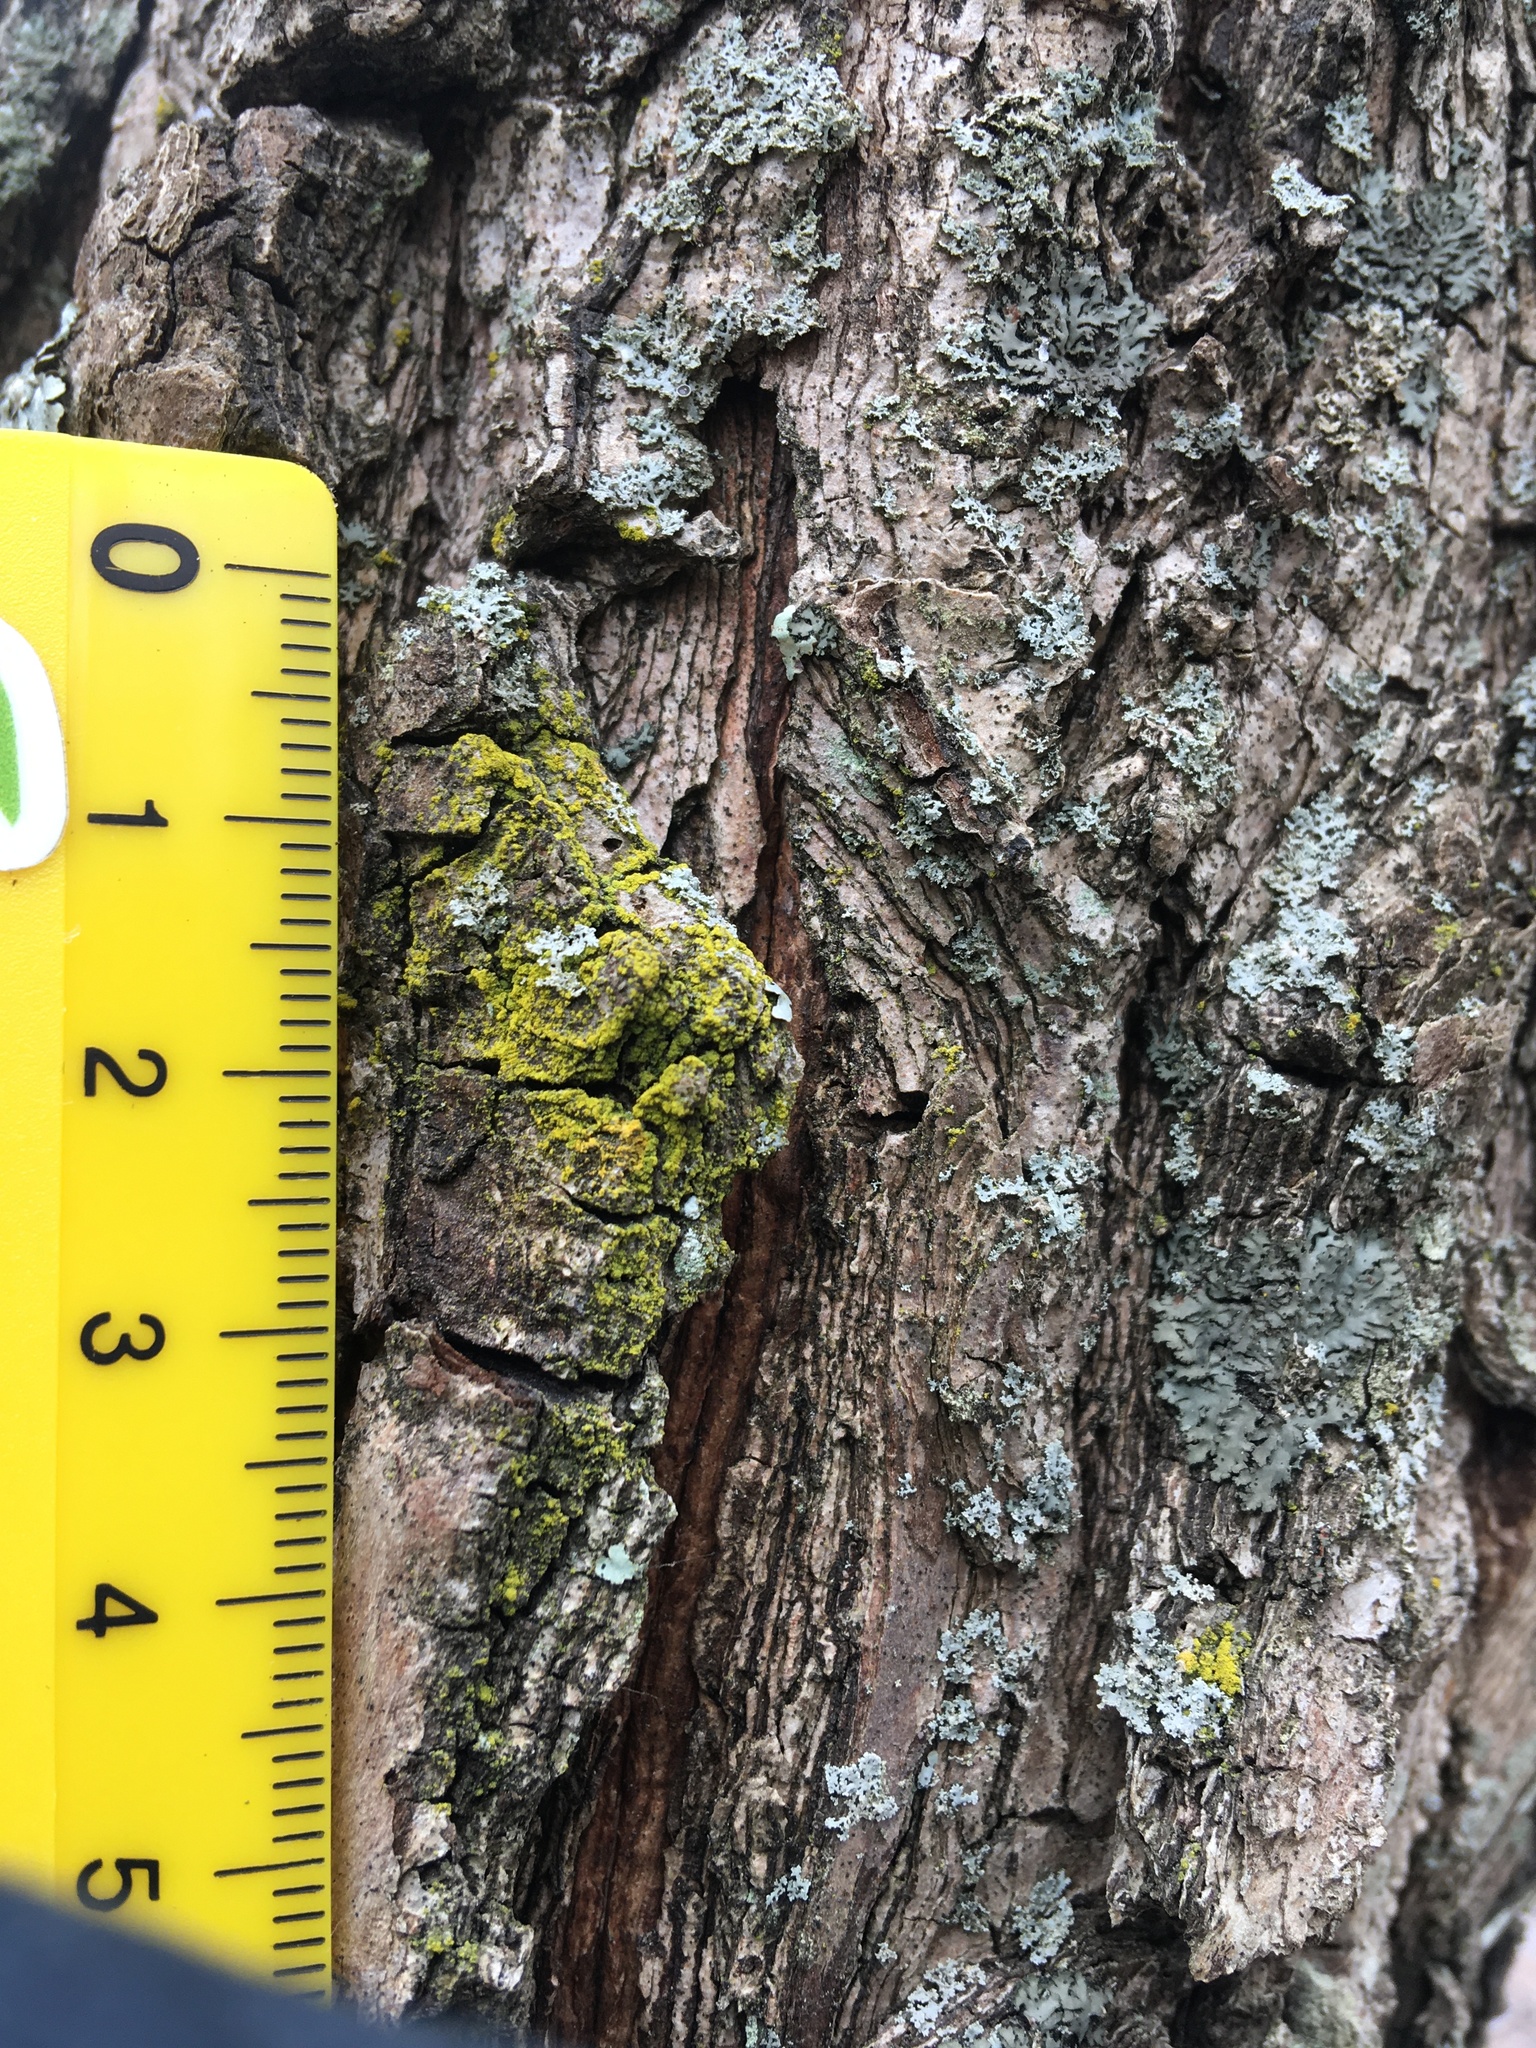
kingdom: Fungi
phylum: Ascomycota
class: Candelariomycetes
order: Candelariales
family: Candelariaceae
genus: Candelaria
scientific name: Candelaria concolor
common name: Candleflame lichen
